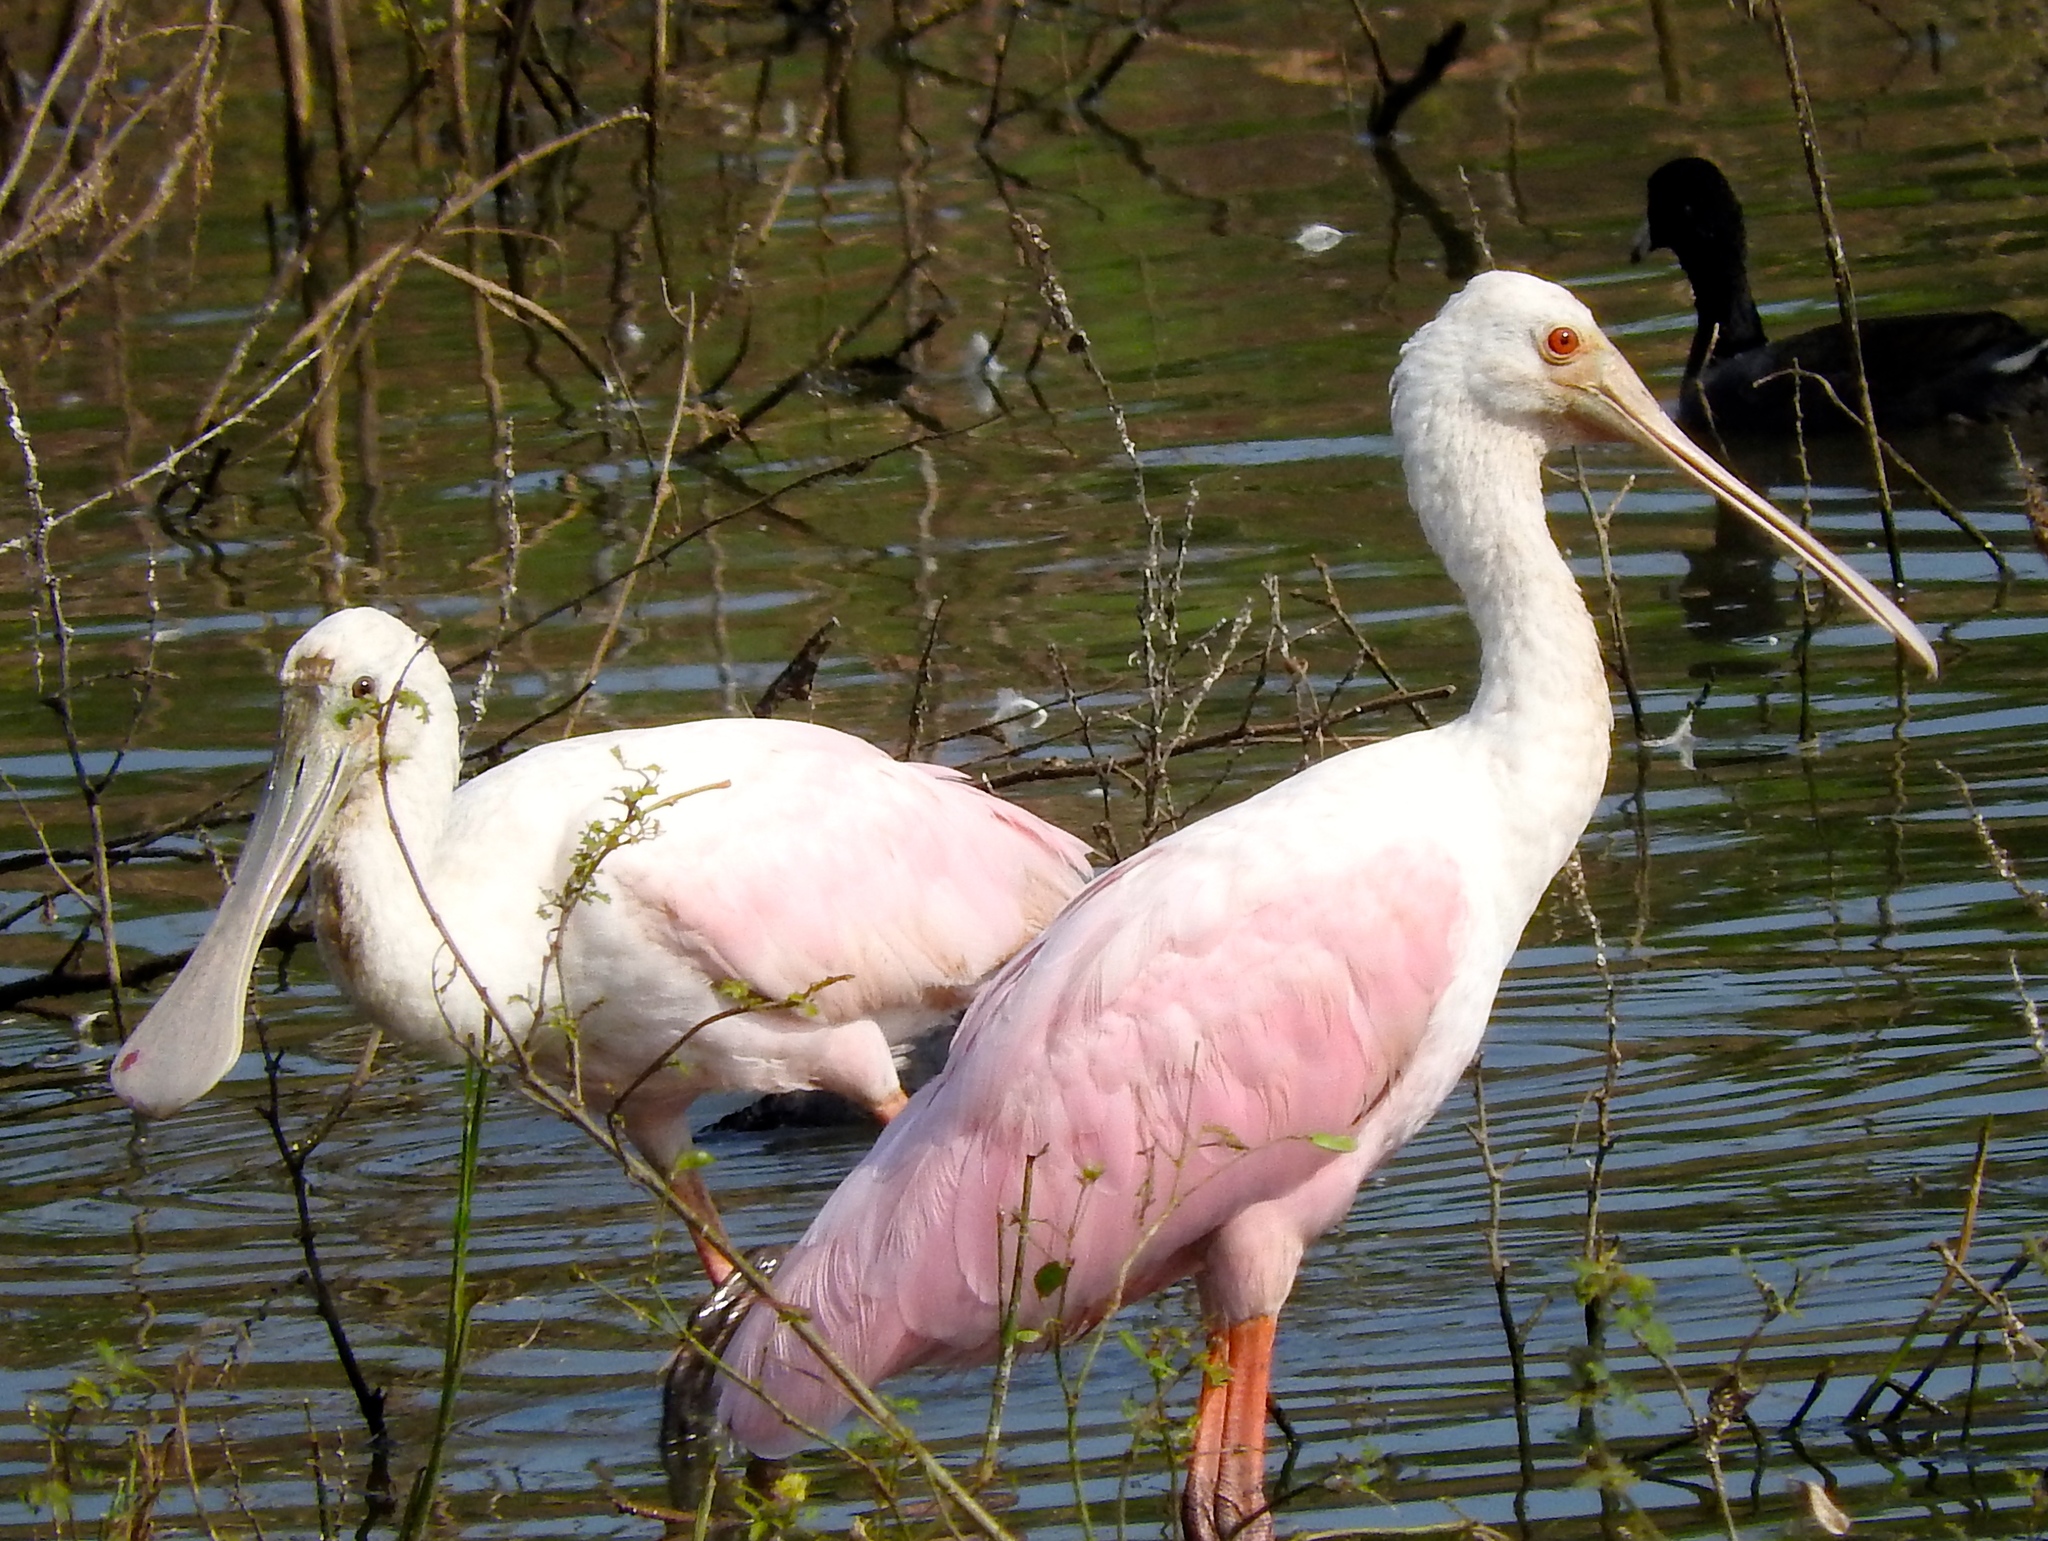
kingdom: Animalia
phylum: Chordata
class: Aves
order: Pelecaniformes
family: Threskiornithidae
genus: Platalea
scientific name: Platalea ajaja
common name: Roseate spoonbill
